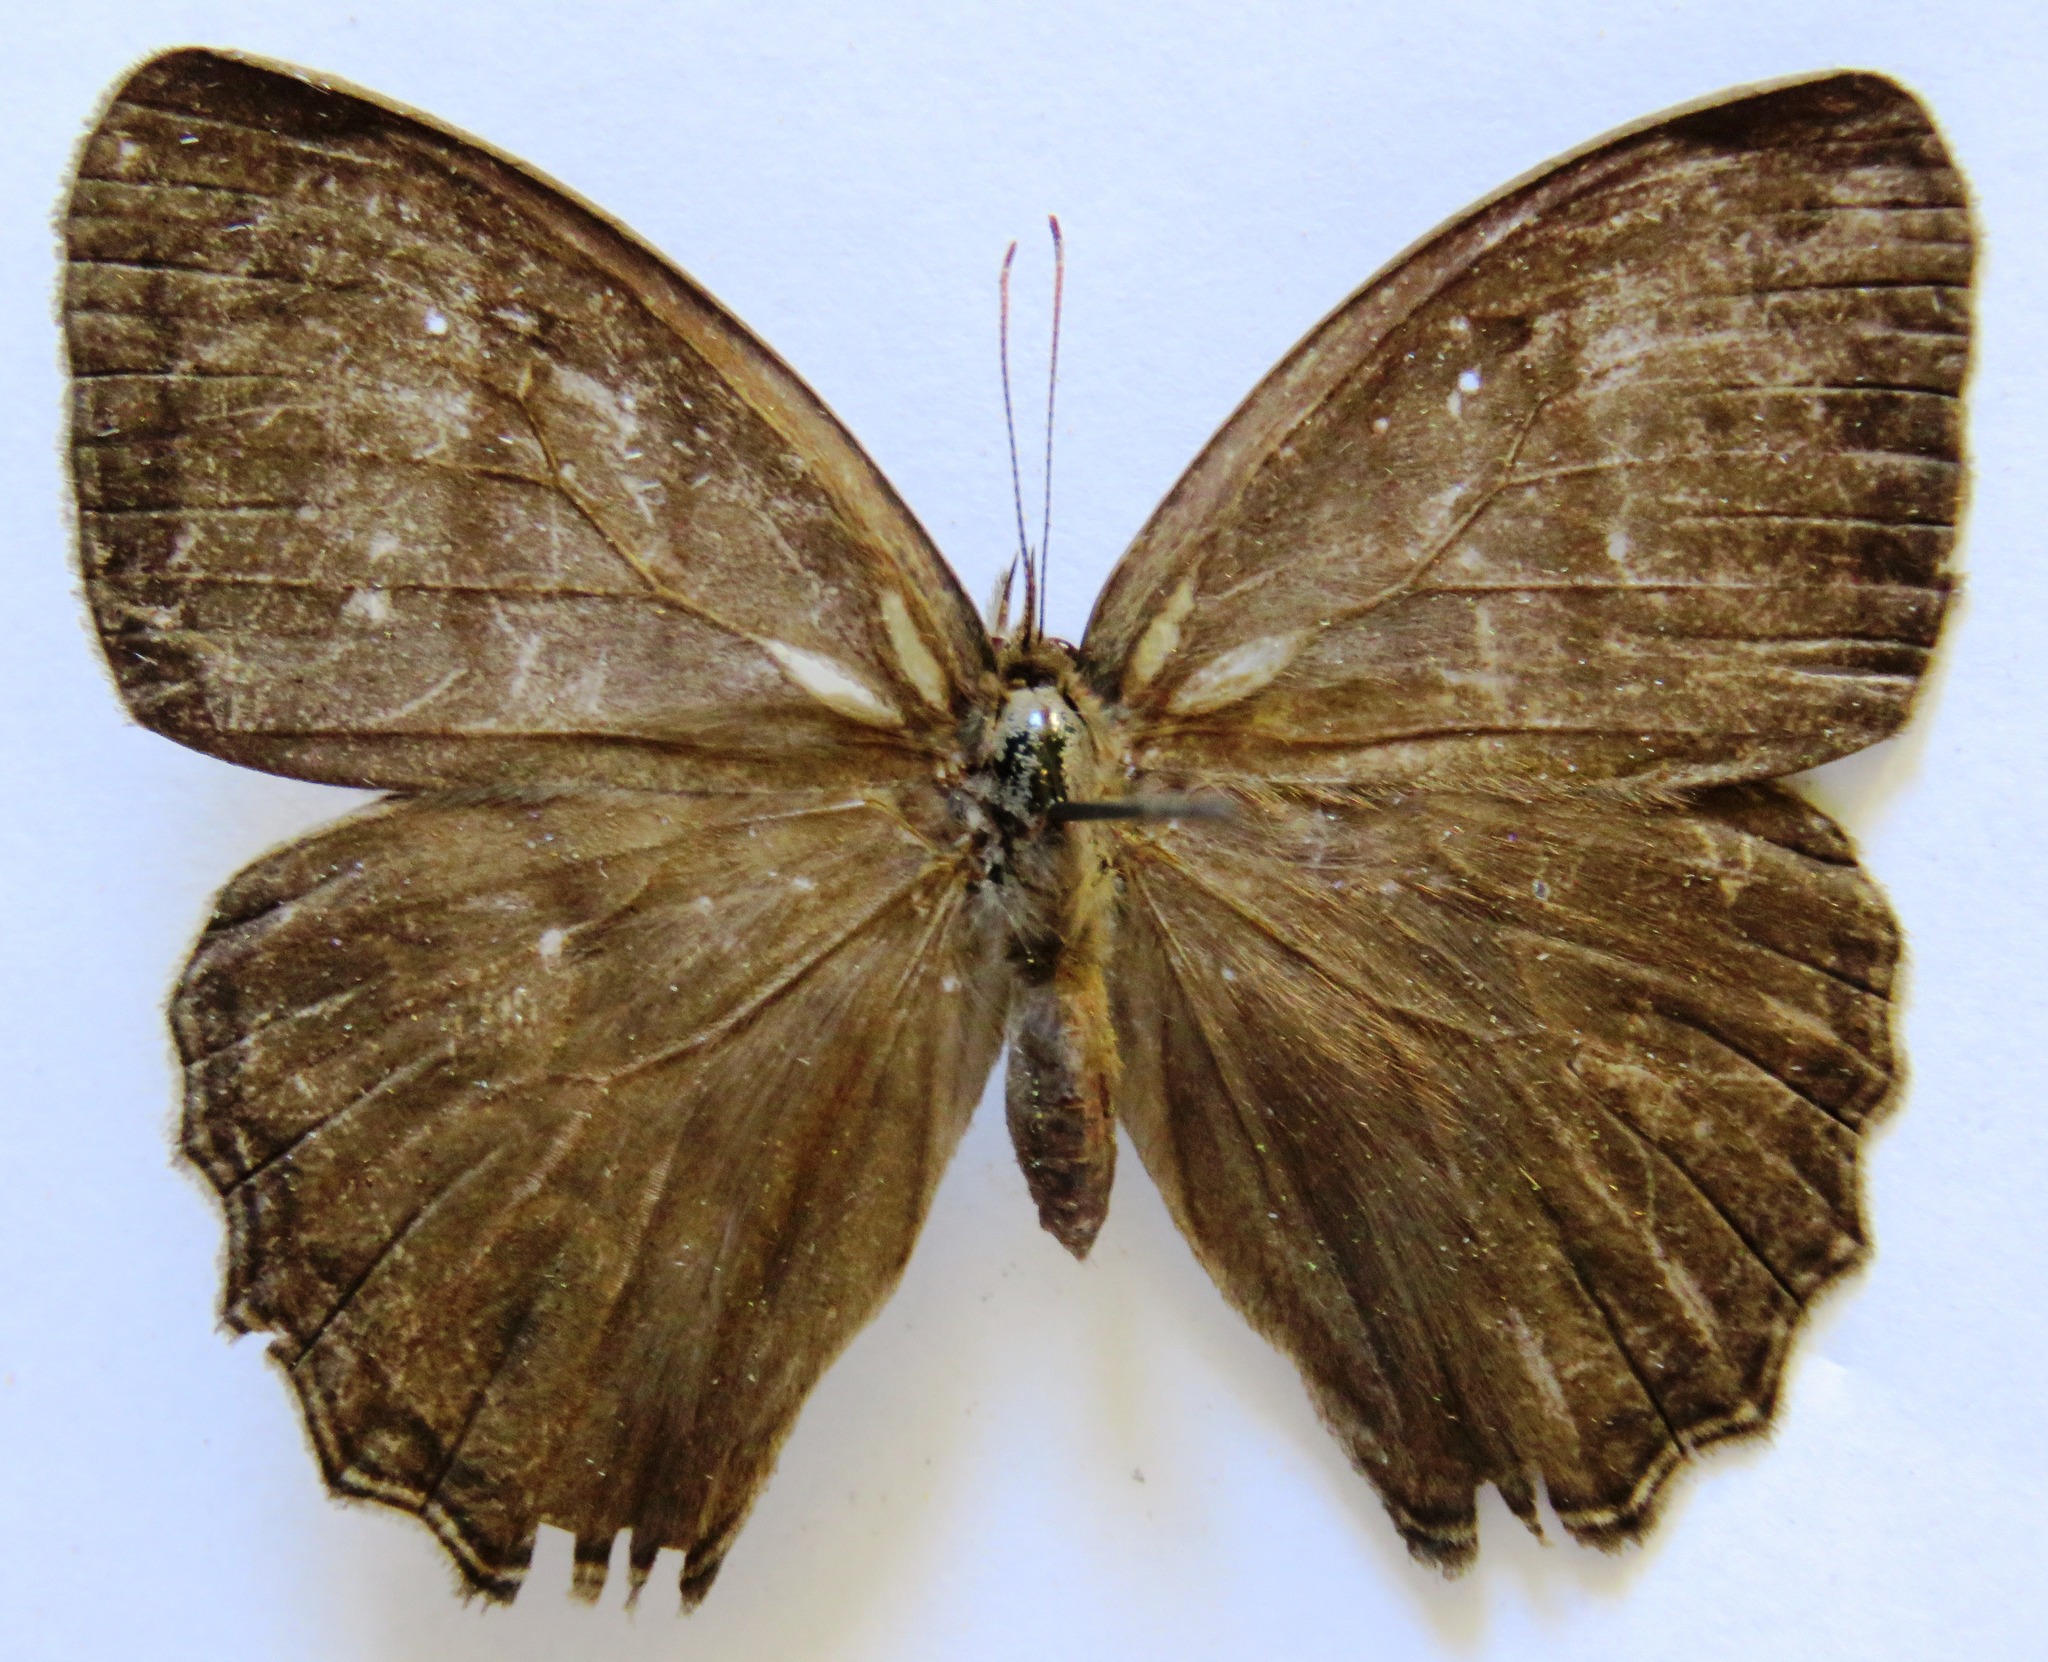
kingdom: Animalia
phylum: Arthropoda
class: Insecta
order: Lepidoptera
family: Nymphalidae
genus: Magneuptychia
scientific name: Magneuptychia libye
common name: Blue-gray satyr
